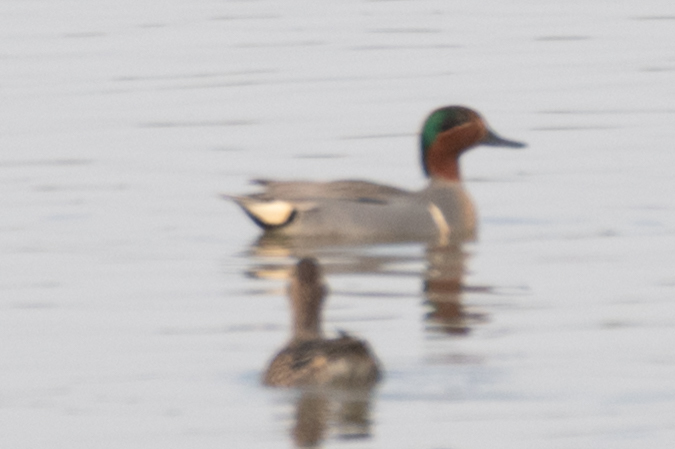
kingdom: Animalia
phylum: Chordata
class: Aves
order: Anseriformes
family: Anatidae
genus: Anas
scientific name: Anas crecca
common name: Eurasian teal
